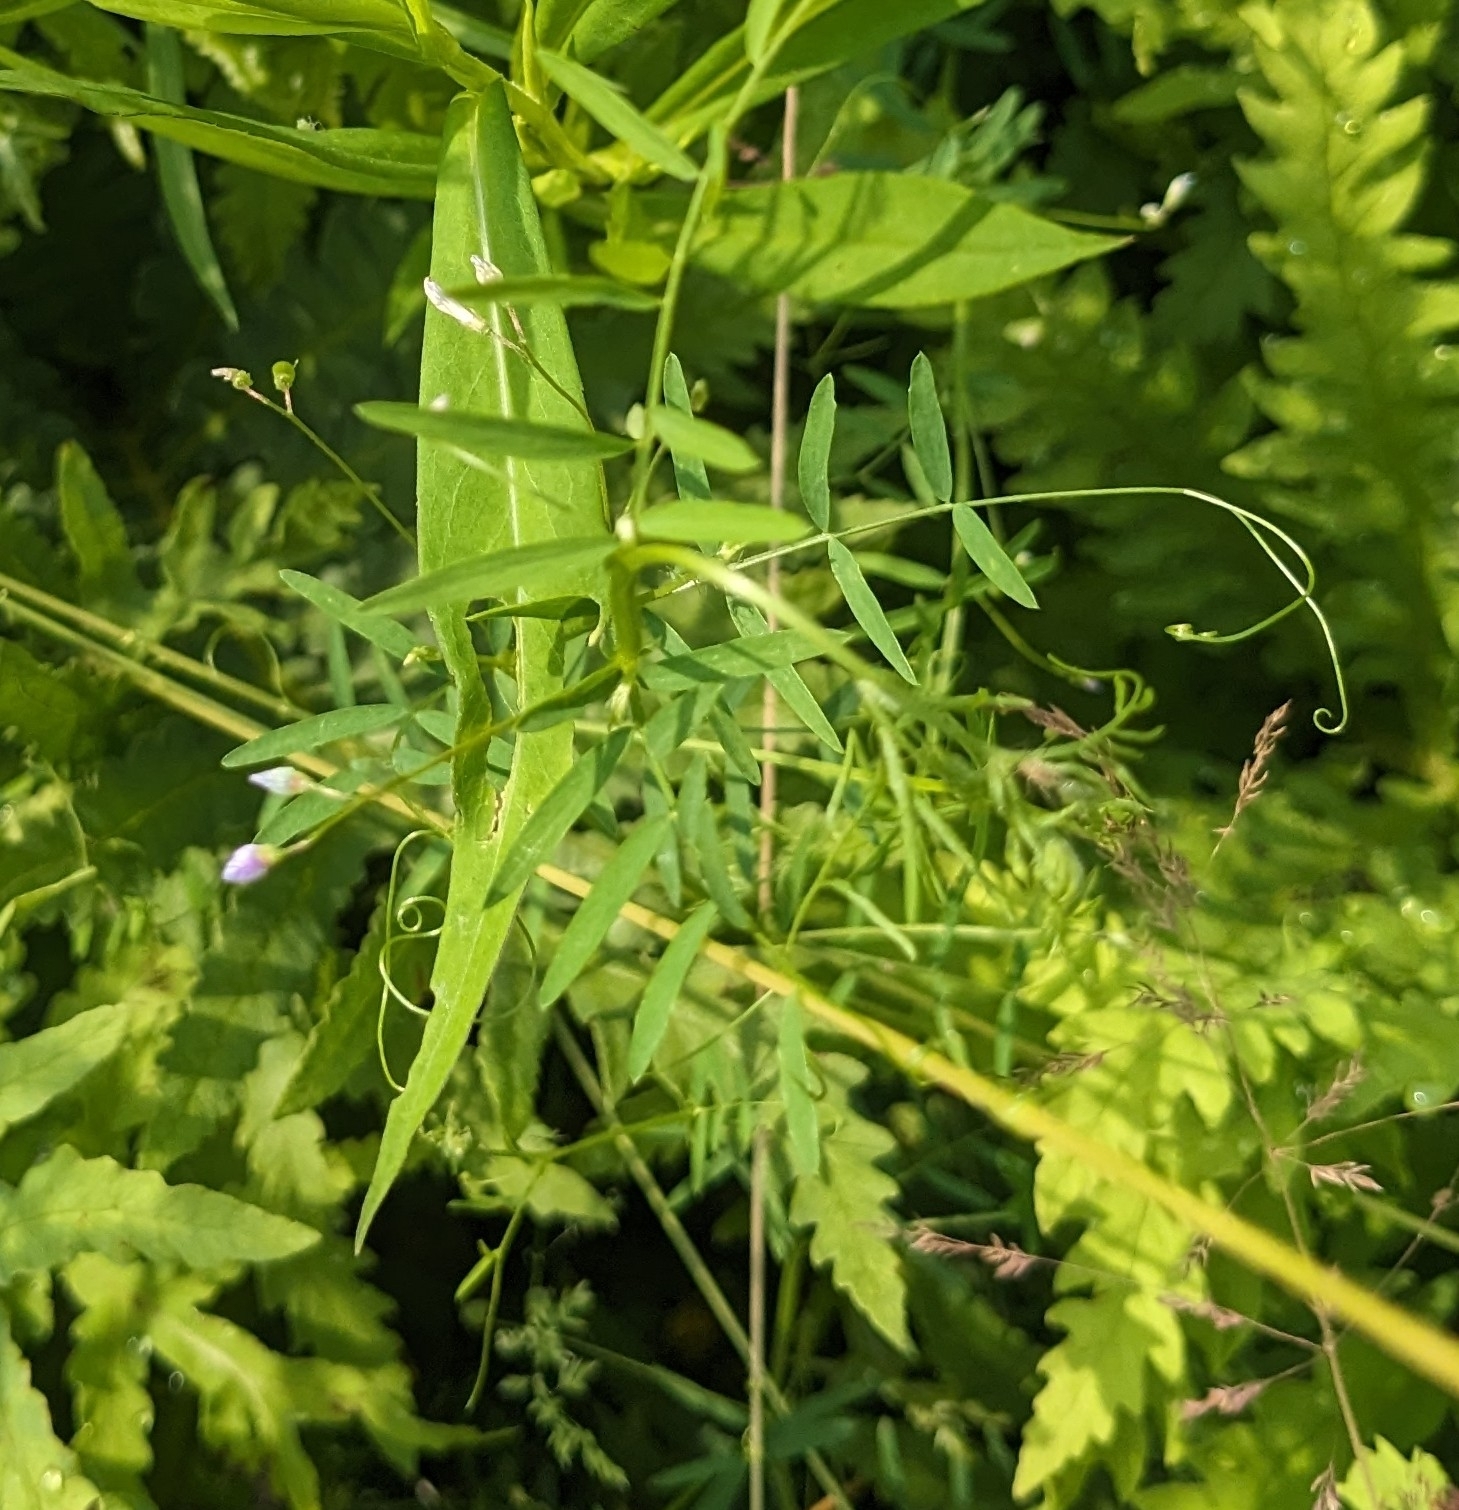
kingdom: Plantae
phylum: Tracheophyta
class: Magnoliopsida
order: Fabales
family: Fabaceae
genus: Vicia
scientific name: Vicia tetrasperma
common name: Smooth tare
